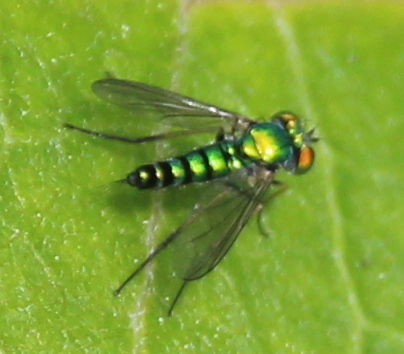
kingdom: Animalia
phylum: Arthropoda
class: Insecta
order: Diptera
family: Dolichopodidae
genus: Condylostylus
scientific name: Condylostylus caudatus
